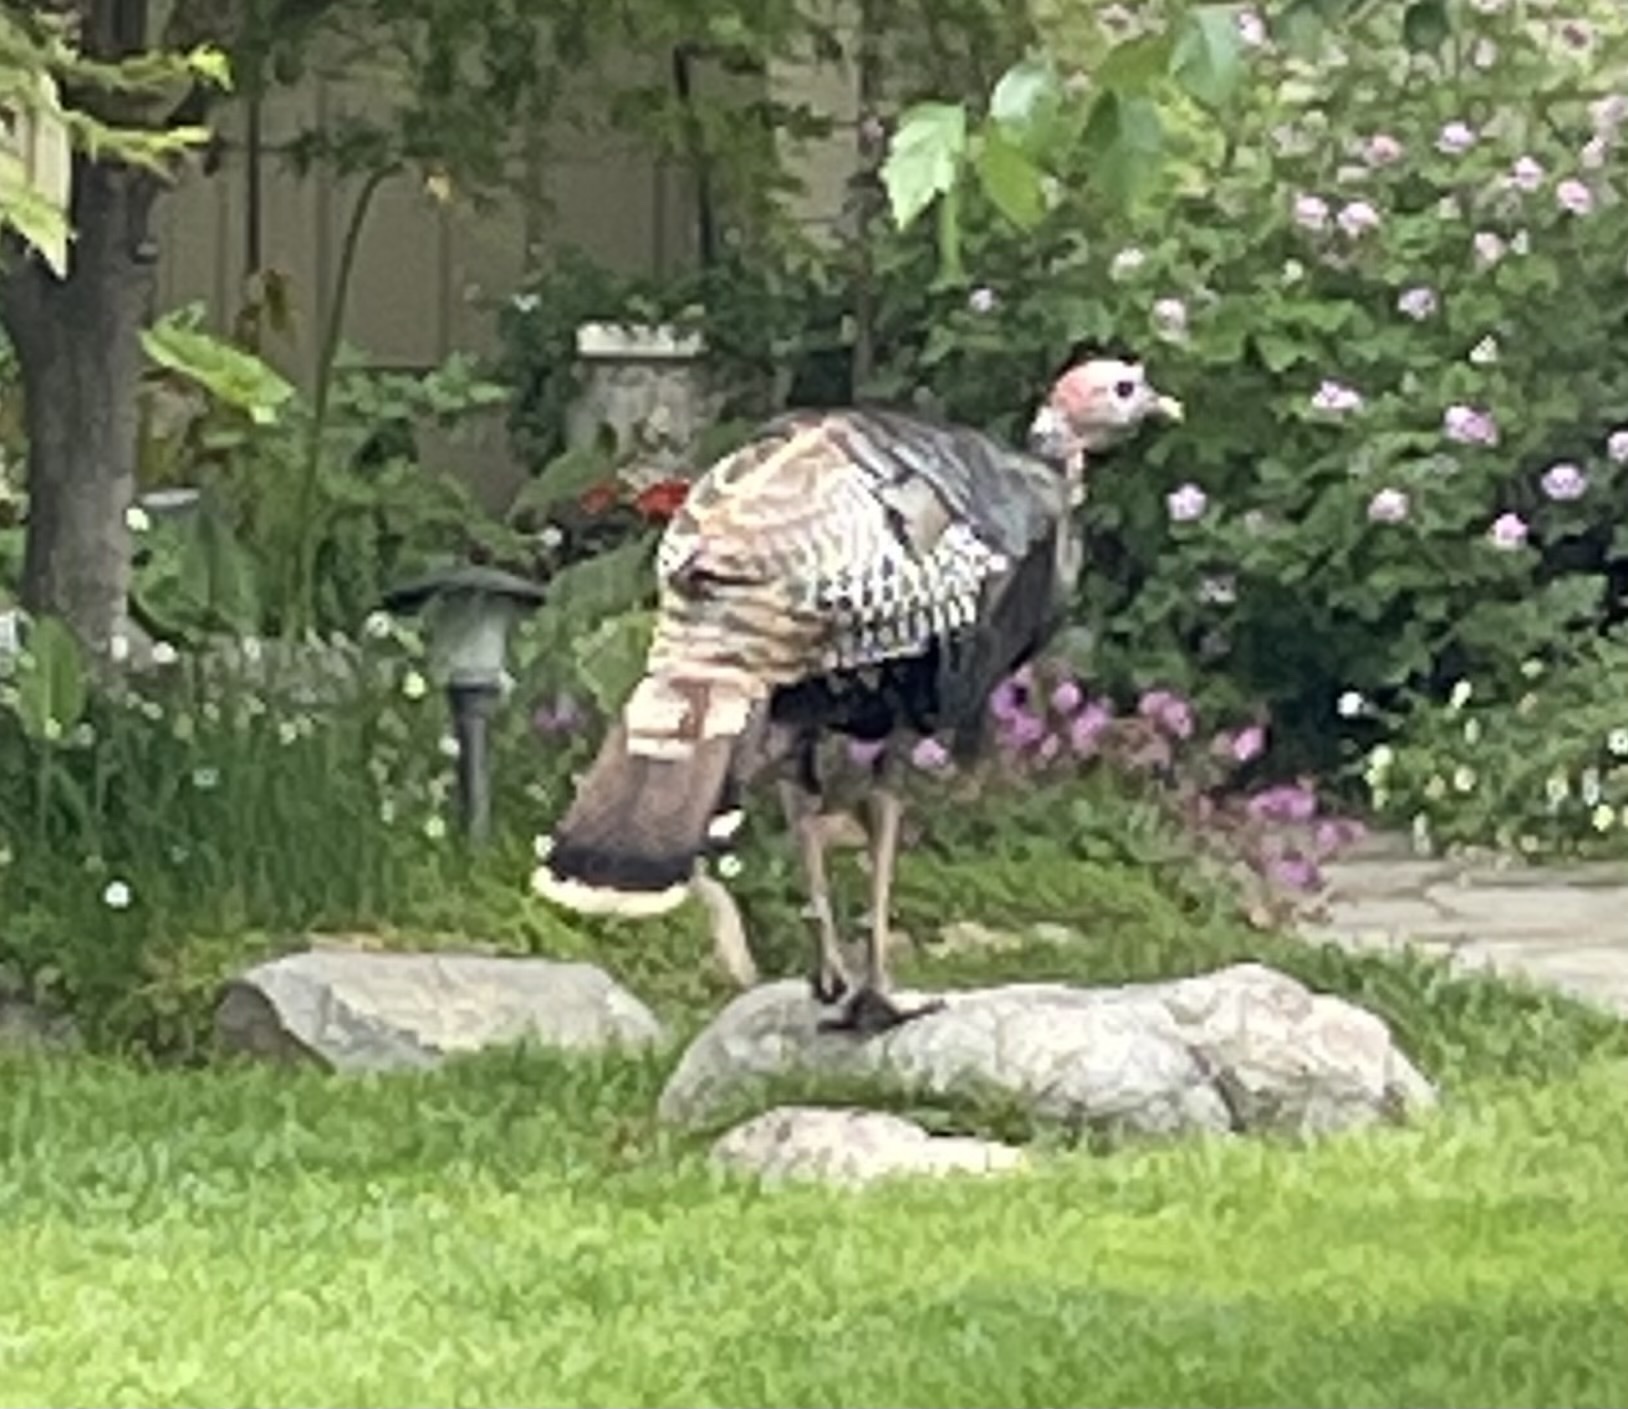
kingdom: Animalia
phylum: Chordata
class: Aves
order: Galliformes
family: Phasianidae
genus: Meleagris
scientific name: Meleagris gallopavo
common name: Wild turkey
